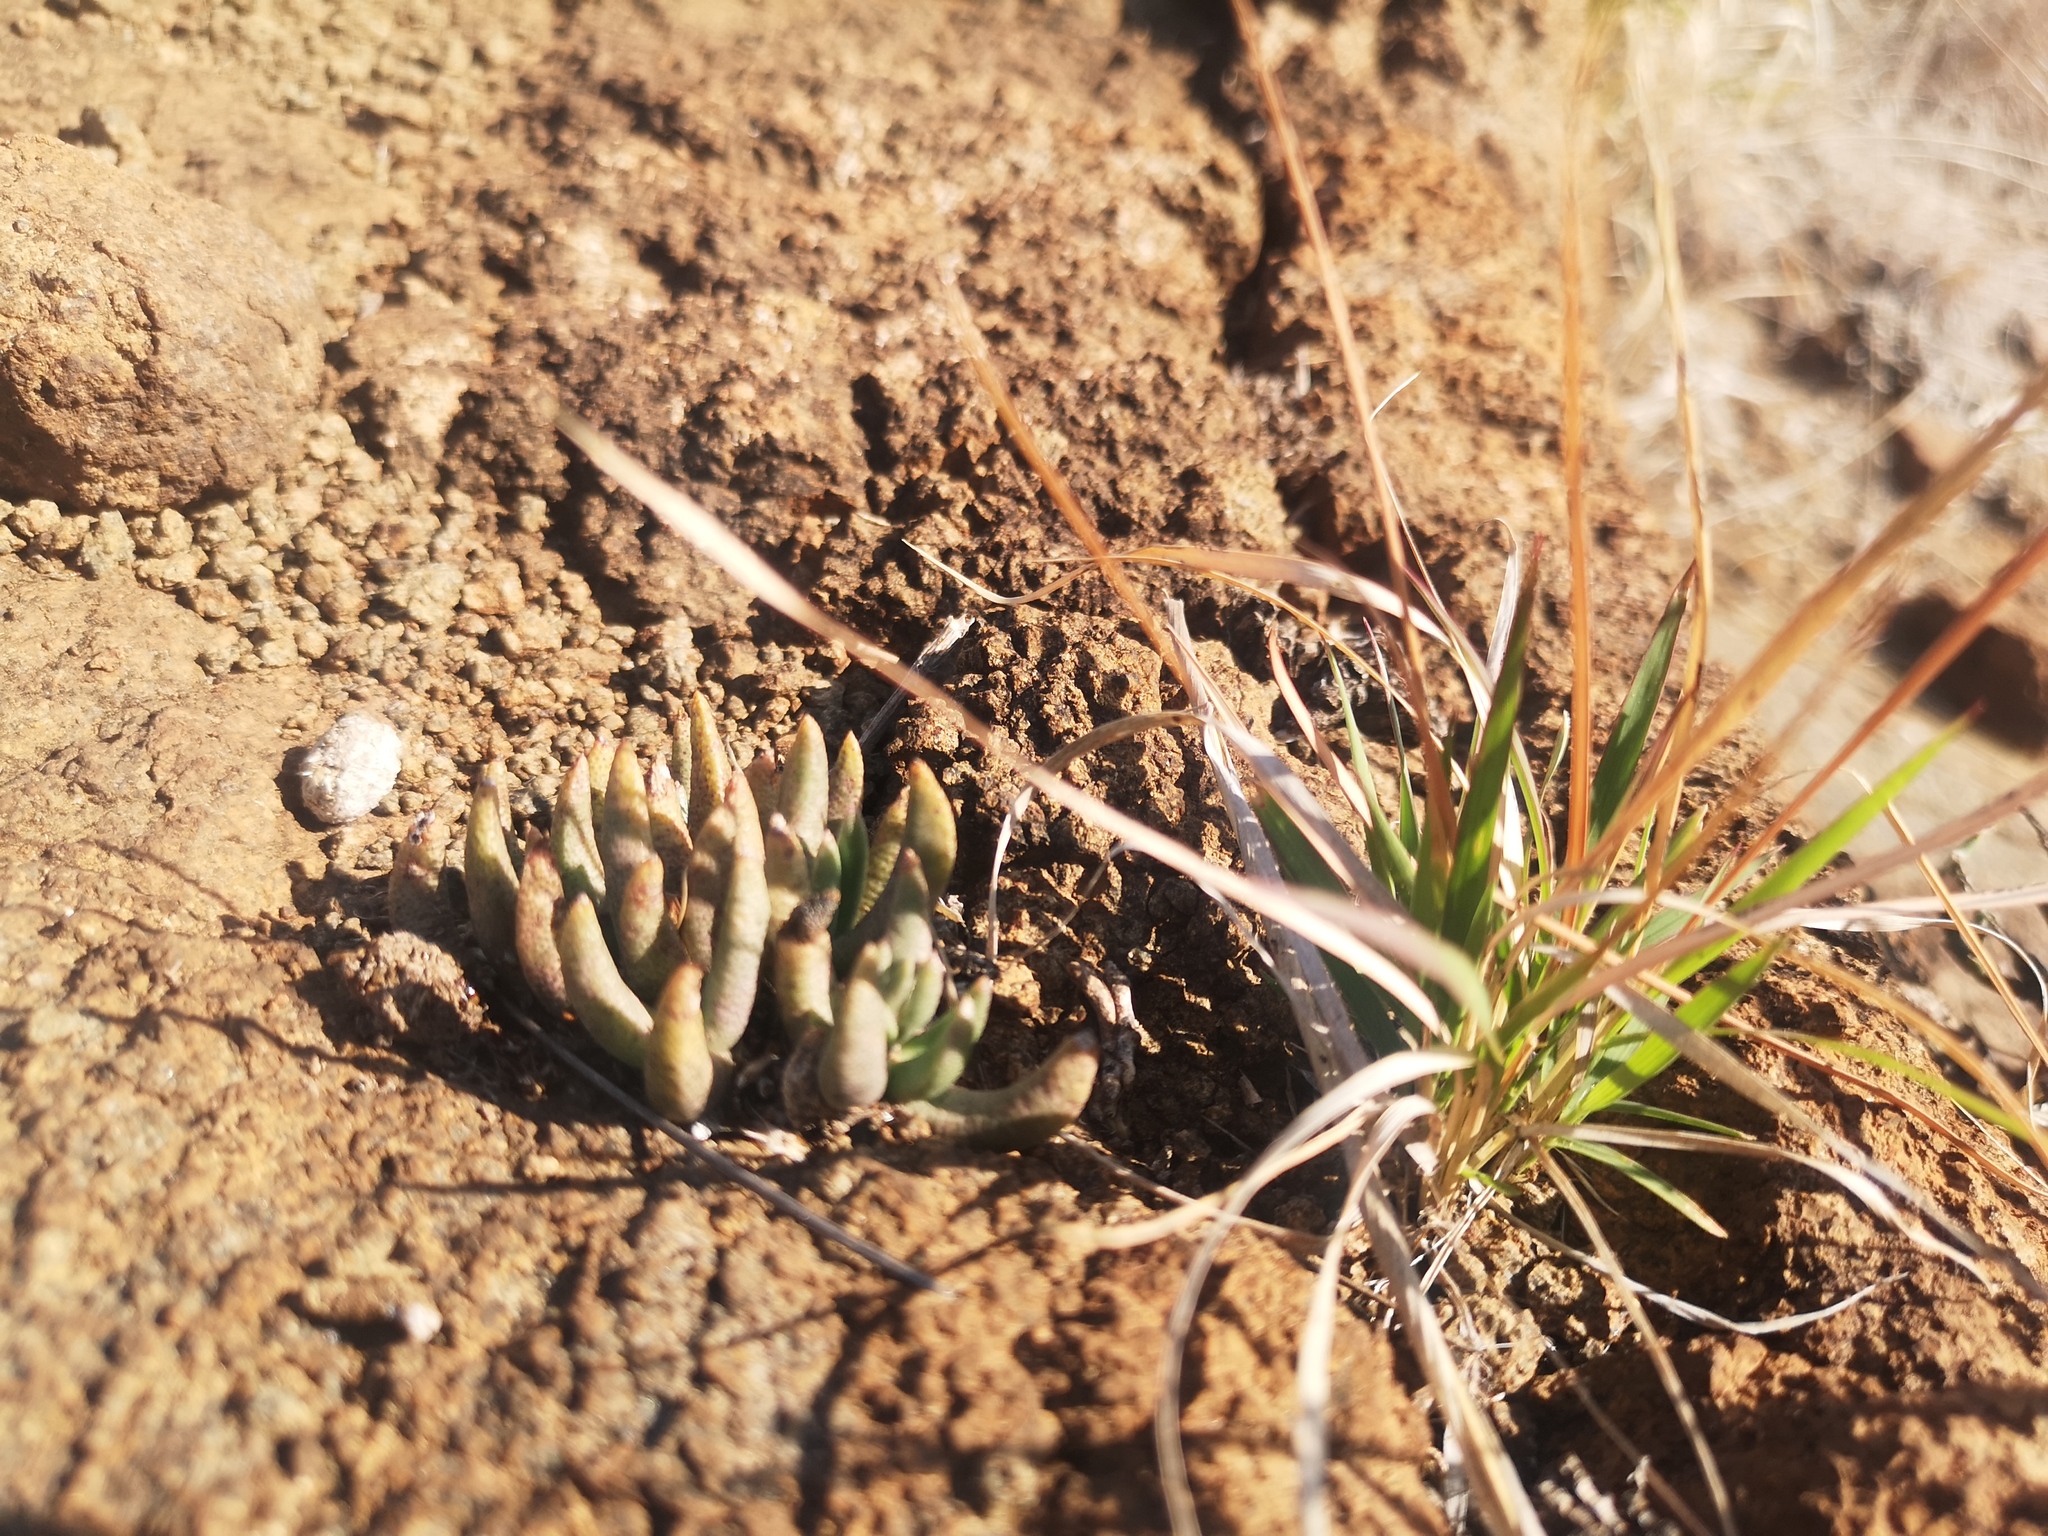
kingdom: Plantae
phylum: Tracheophyta
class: Magnoliopsida
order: Caryophyllales
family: Aizoaceae
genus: Dracophilus
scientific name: Dracophilus Hereroa glenensis
